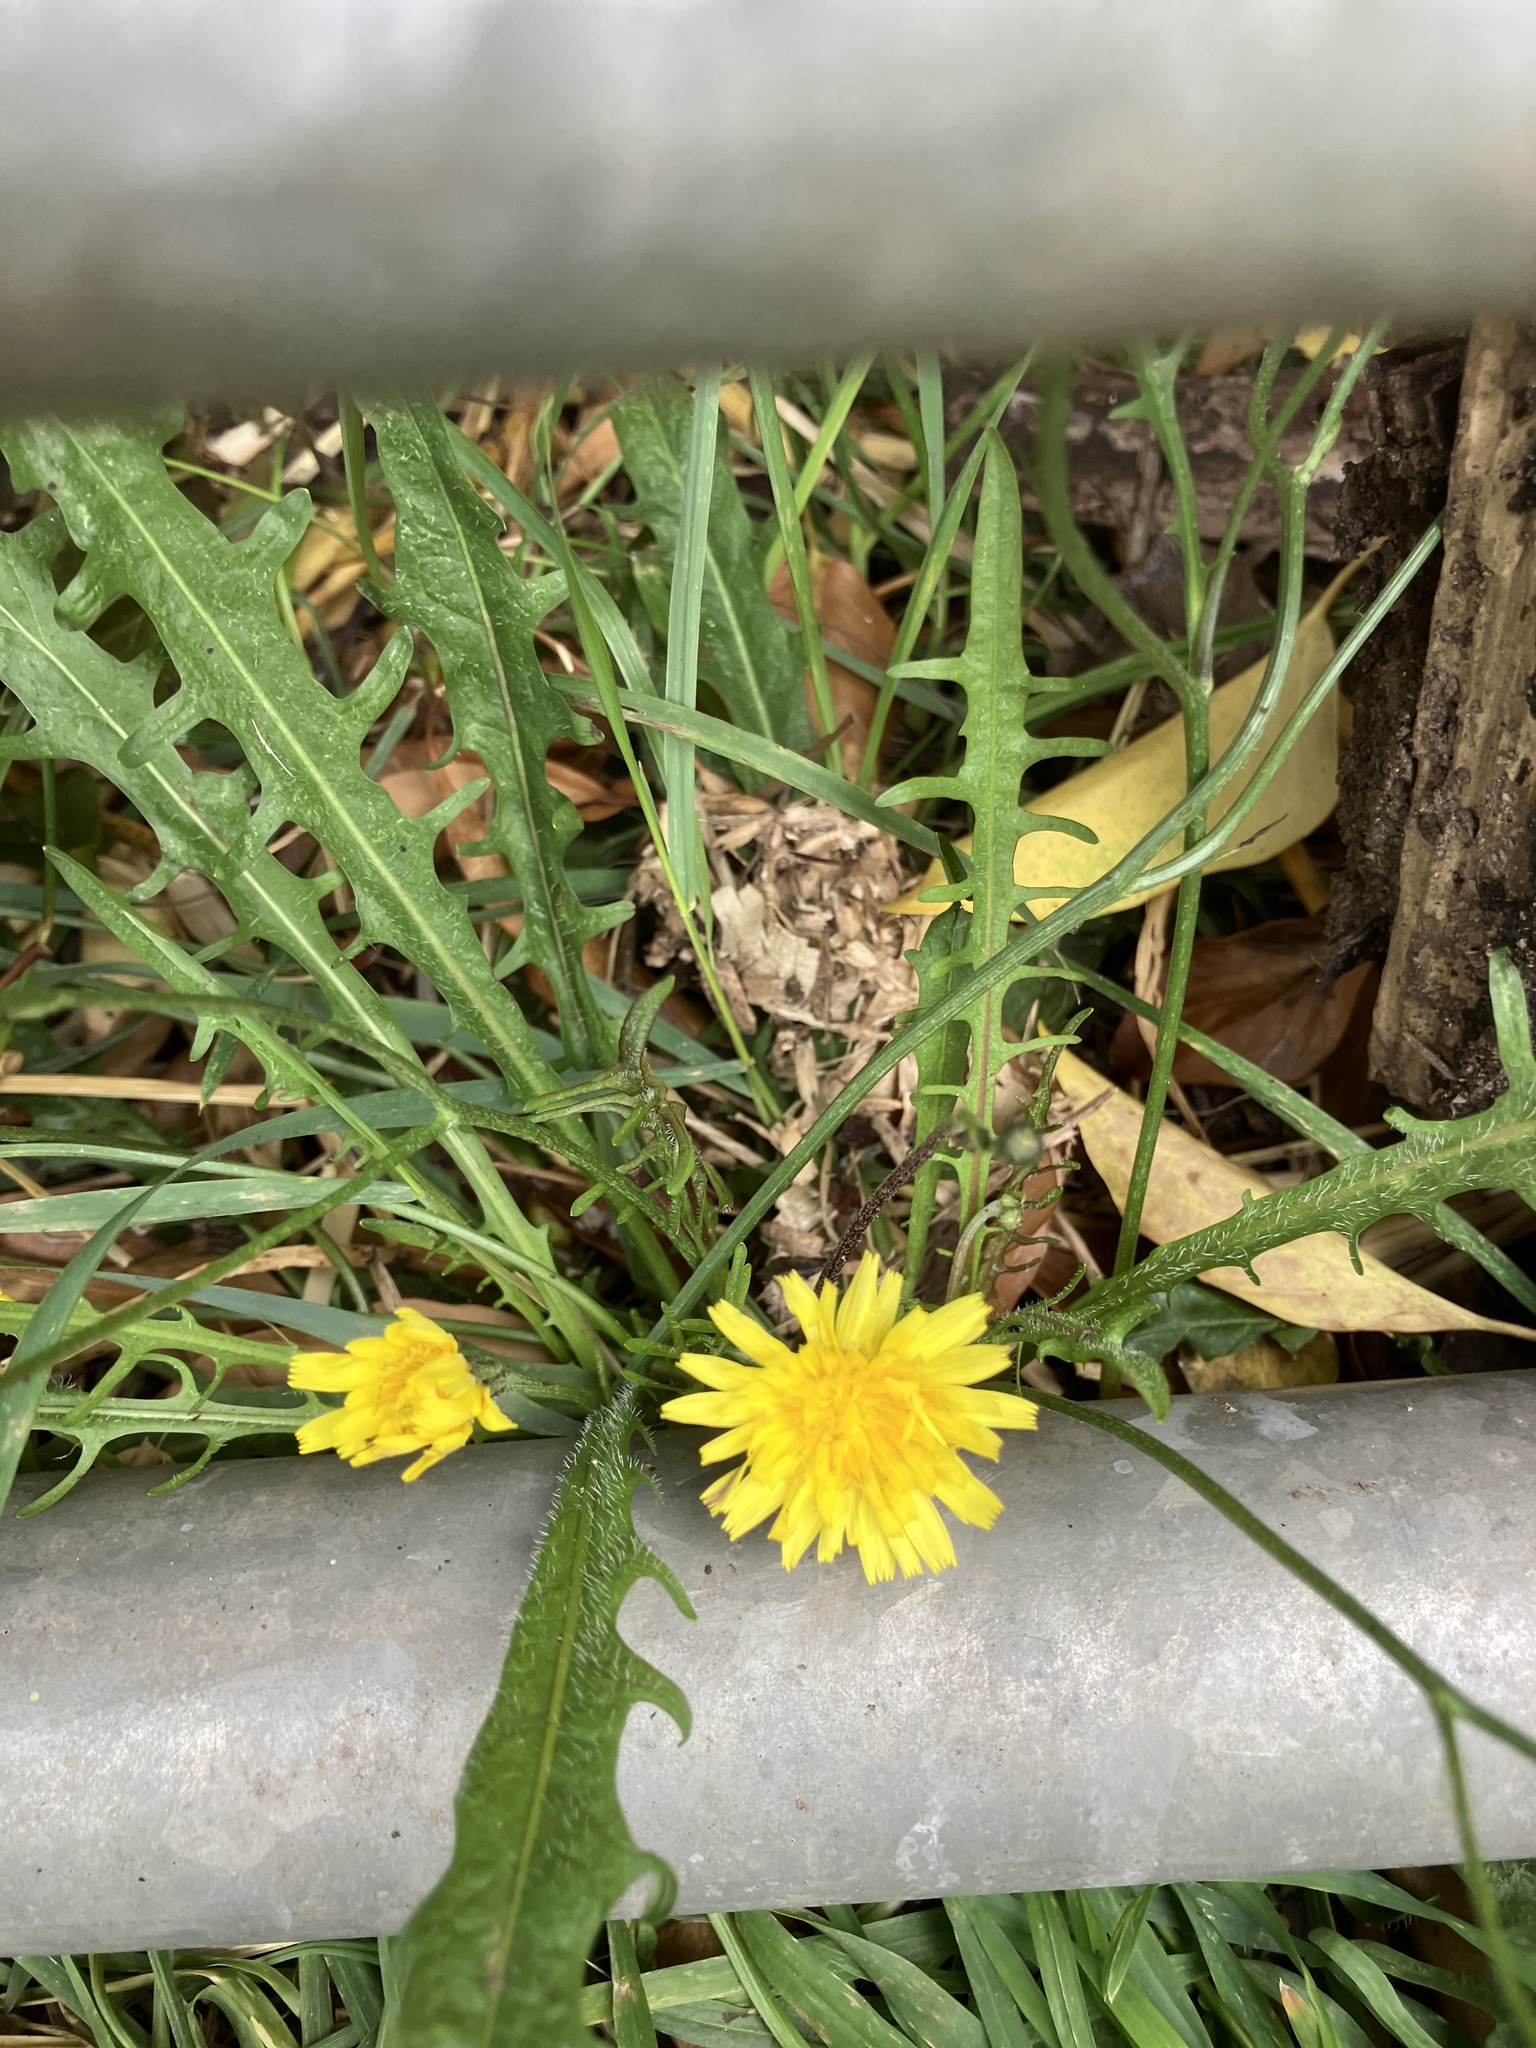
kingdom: Plantae
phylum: Tracheophyta
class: Magnoliopsida
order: Asterales
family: Asteraceae
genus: Taraxacum
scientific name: Taraxacum officinale
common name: Common dandelion
